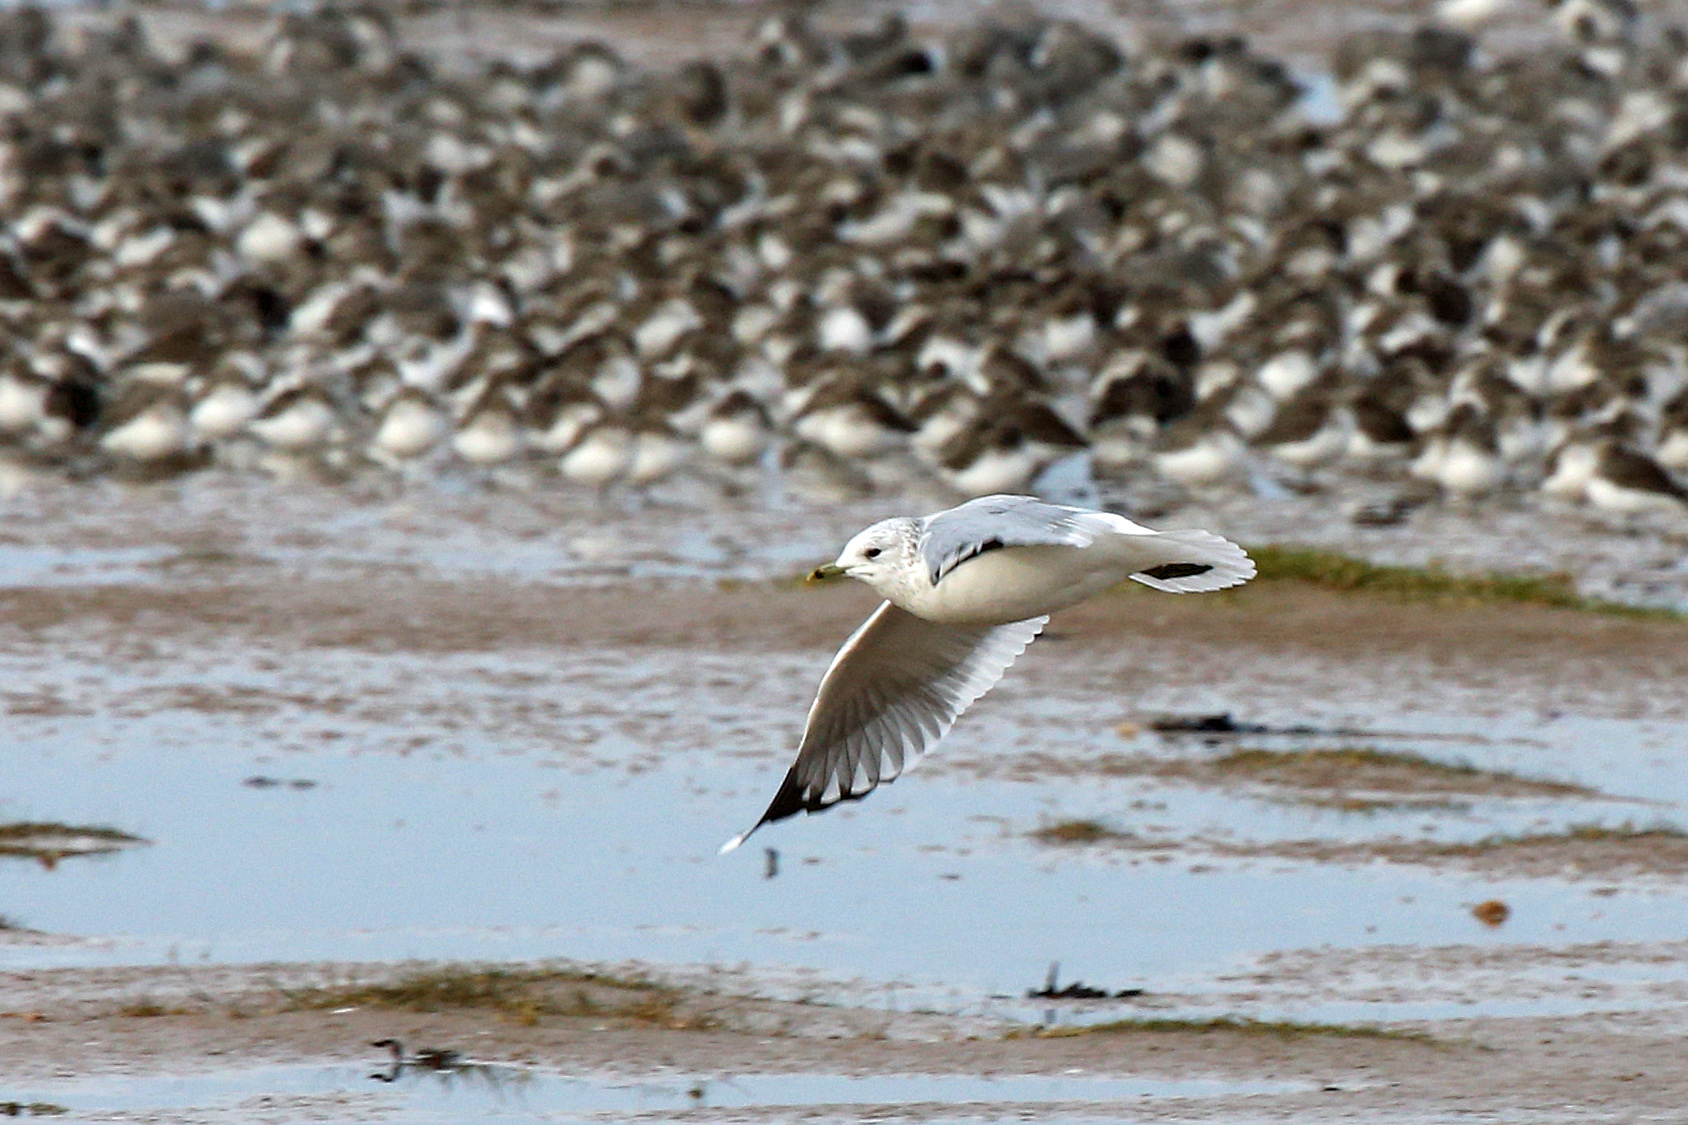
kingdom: Animalia
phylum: Chordata
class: Aves
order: Charadriiformes
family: Laridae
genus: Larus
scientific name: Larus canus
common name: Mew gull
